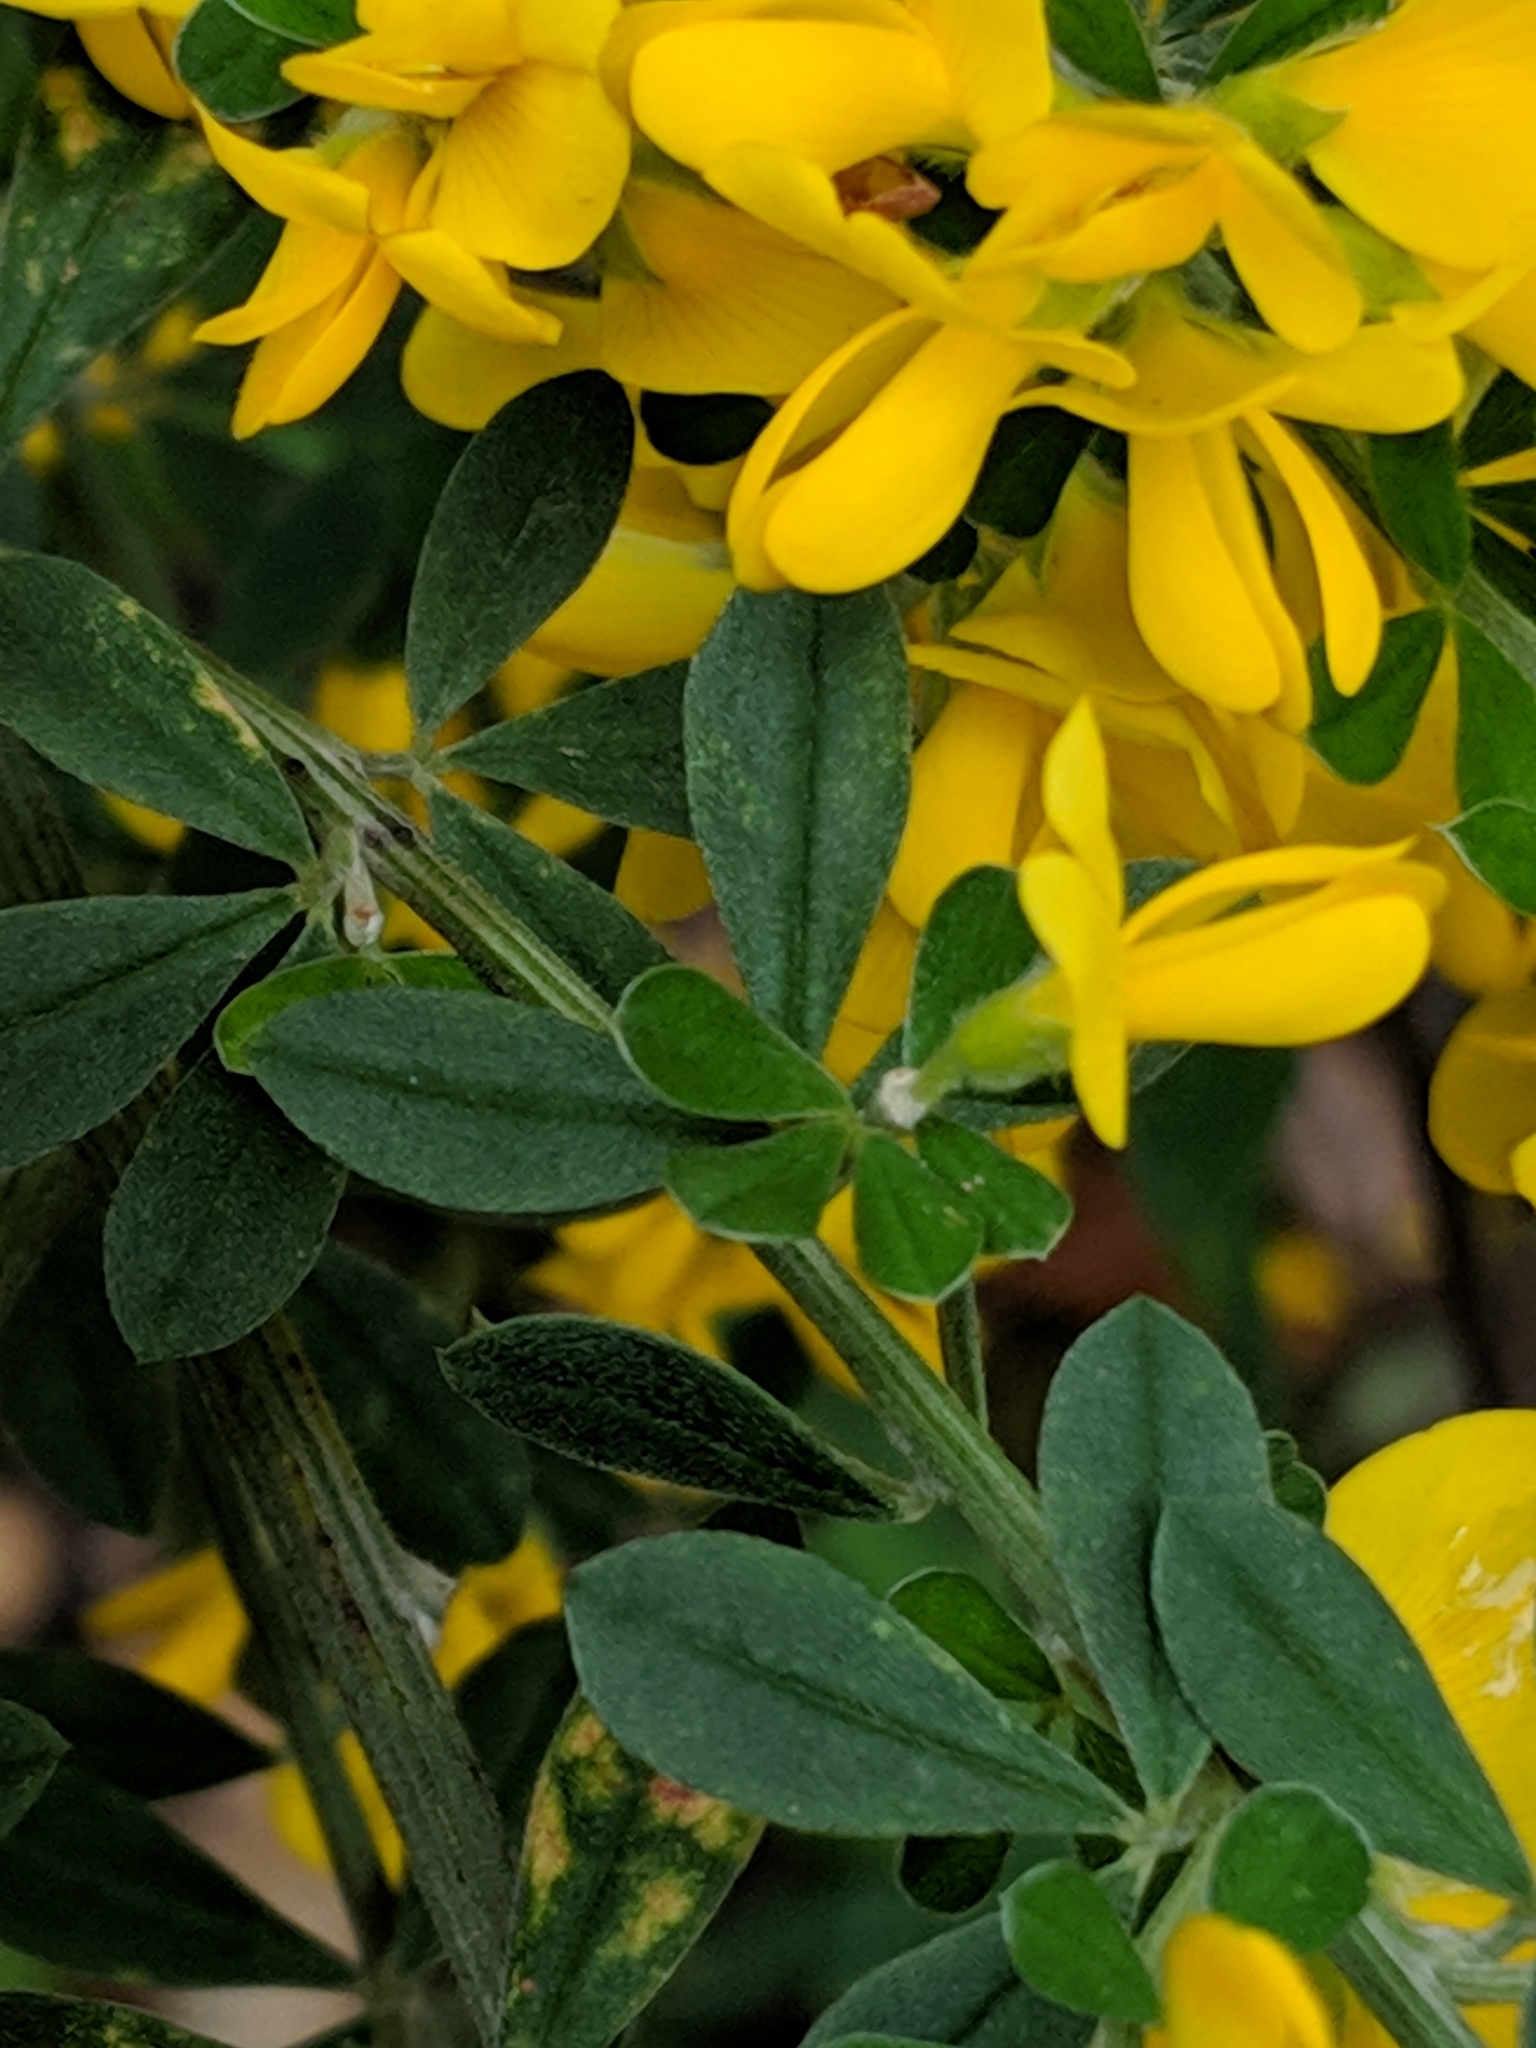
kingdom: Plantae
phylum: Tracheophyta
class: Magnoliopsida
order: Fabales
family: Fabaceae
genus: Genista
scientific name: Genista monspessulana
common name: Montpellier broom
